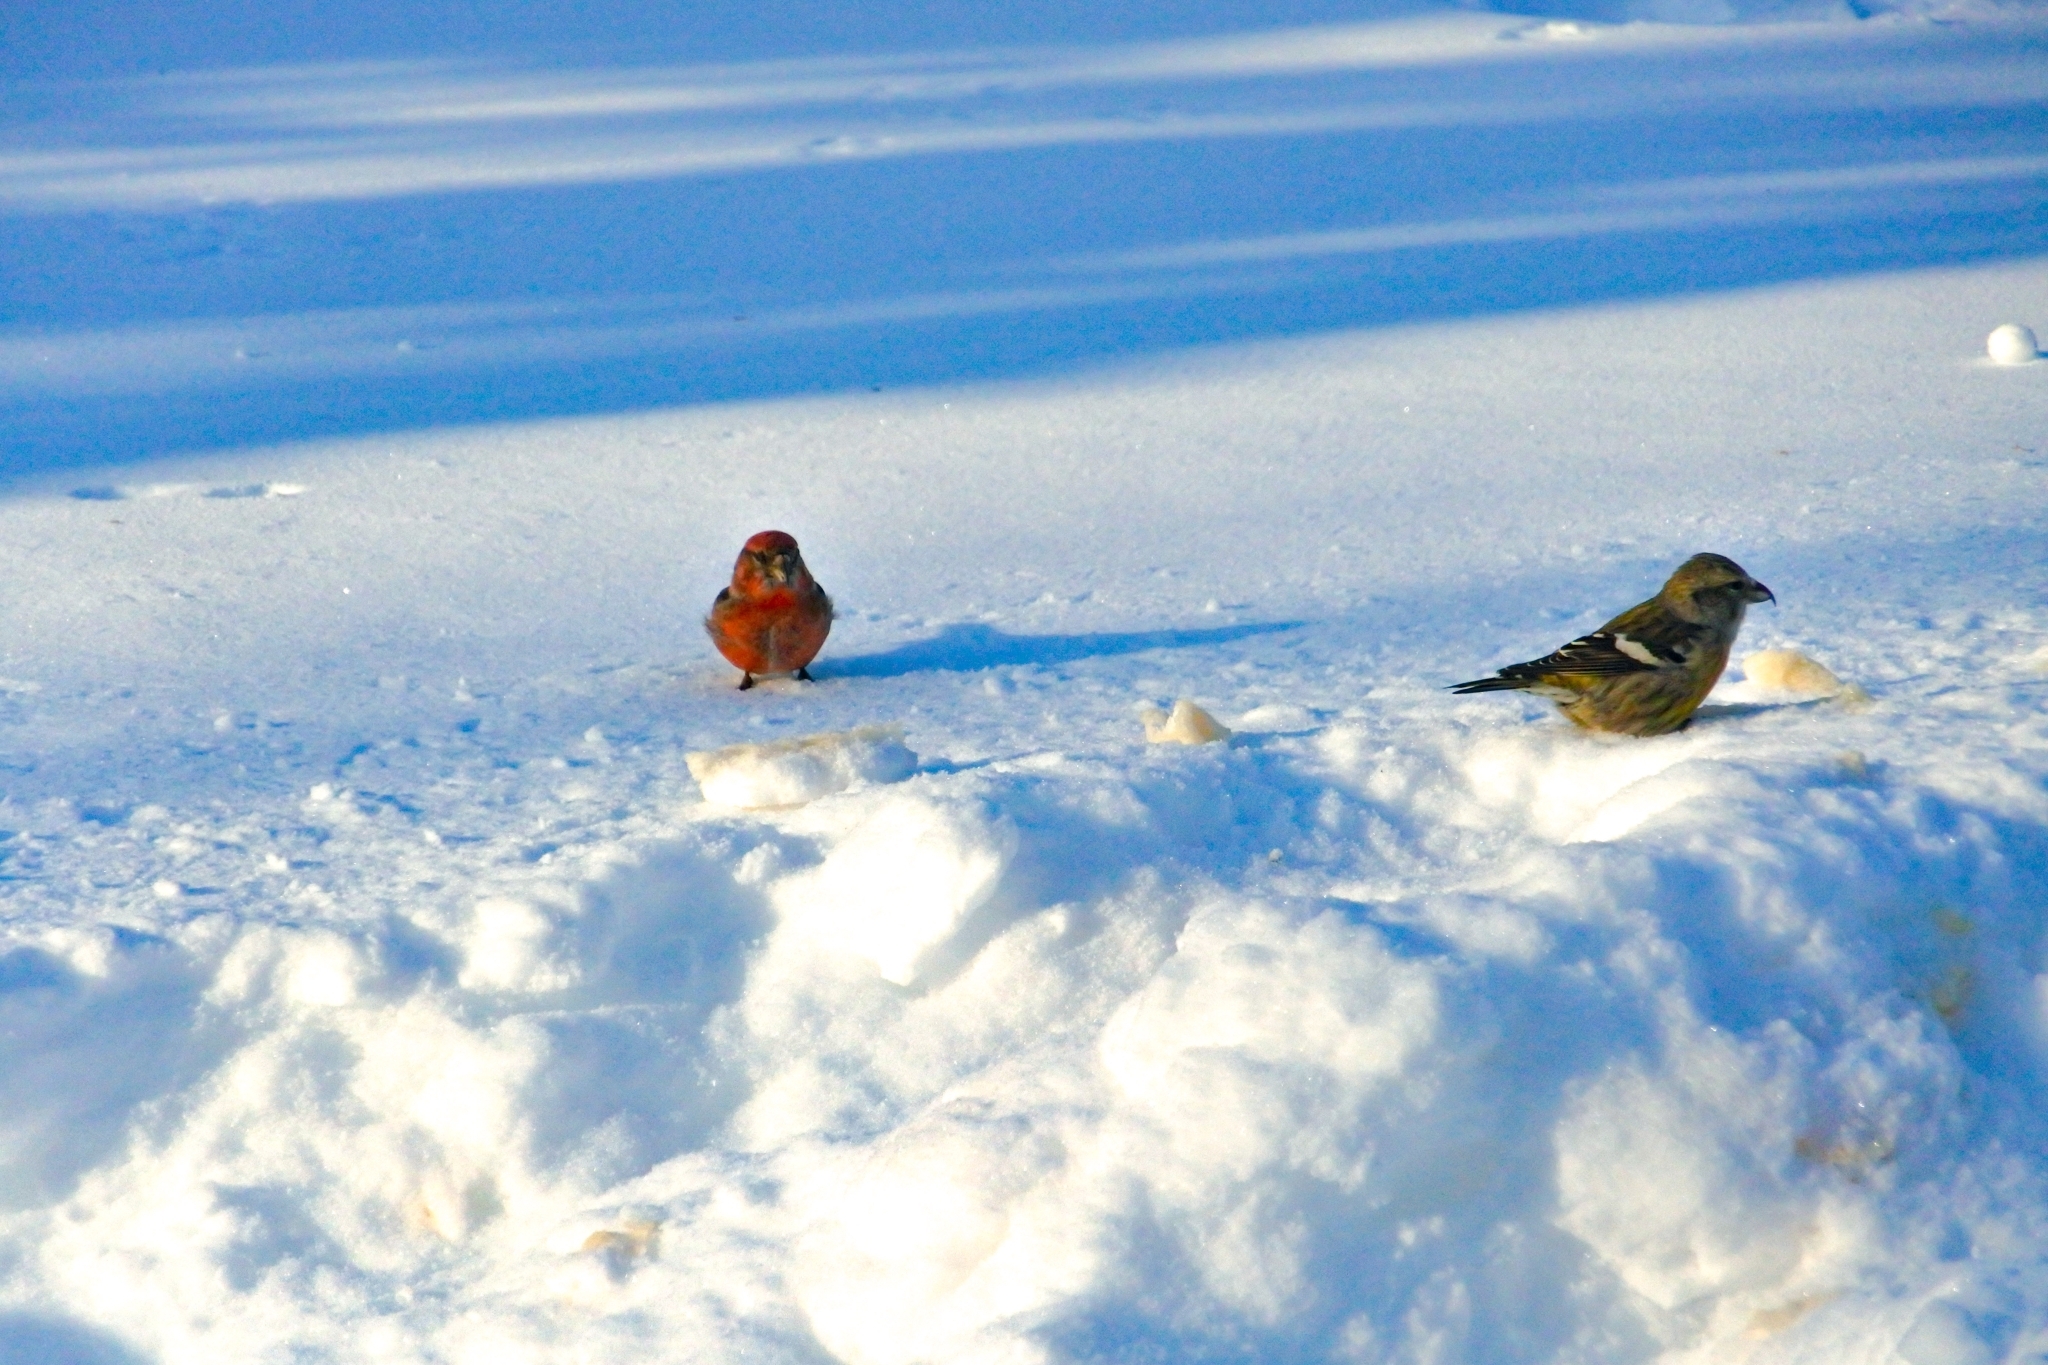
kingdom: Animalia
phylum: Chordata
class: Aves
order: Passeriformes
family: Fringillidae
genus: Loxia
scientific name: Loxia leucoptera
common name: Two-barred crossbill
